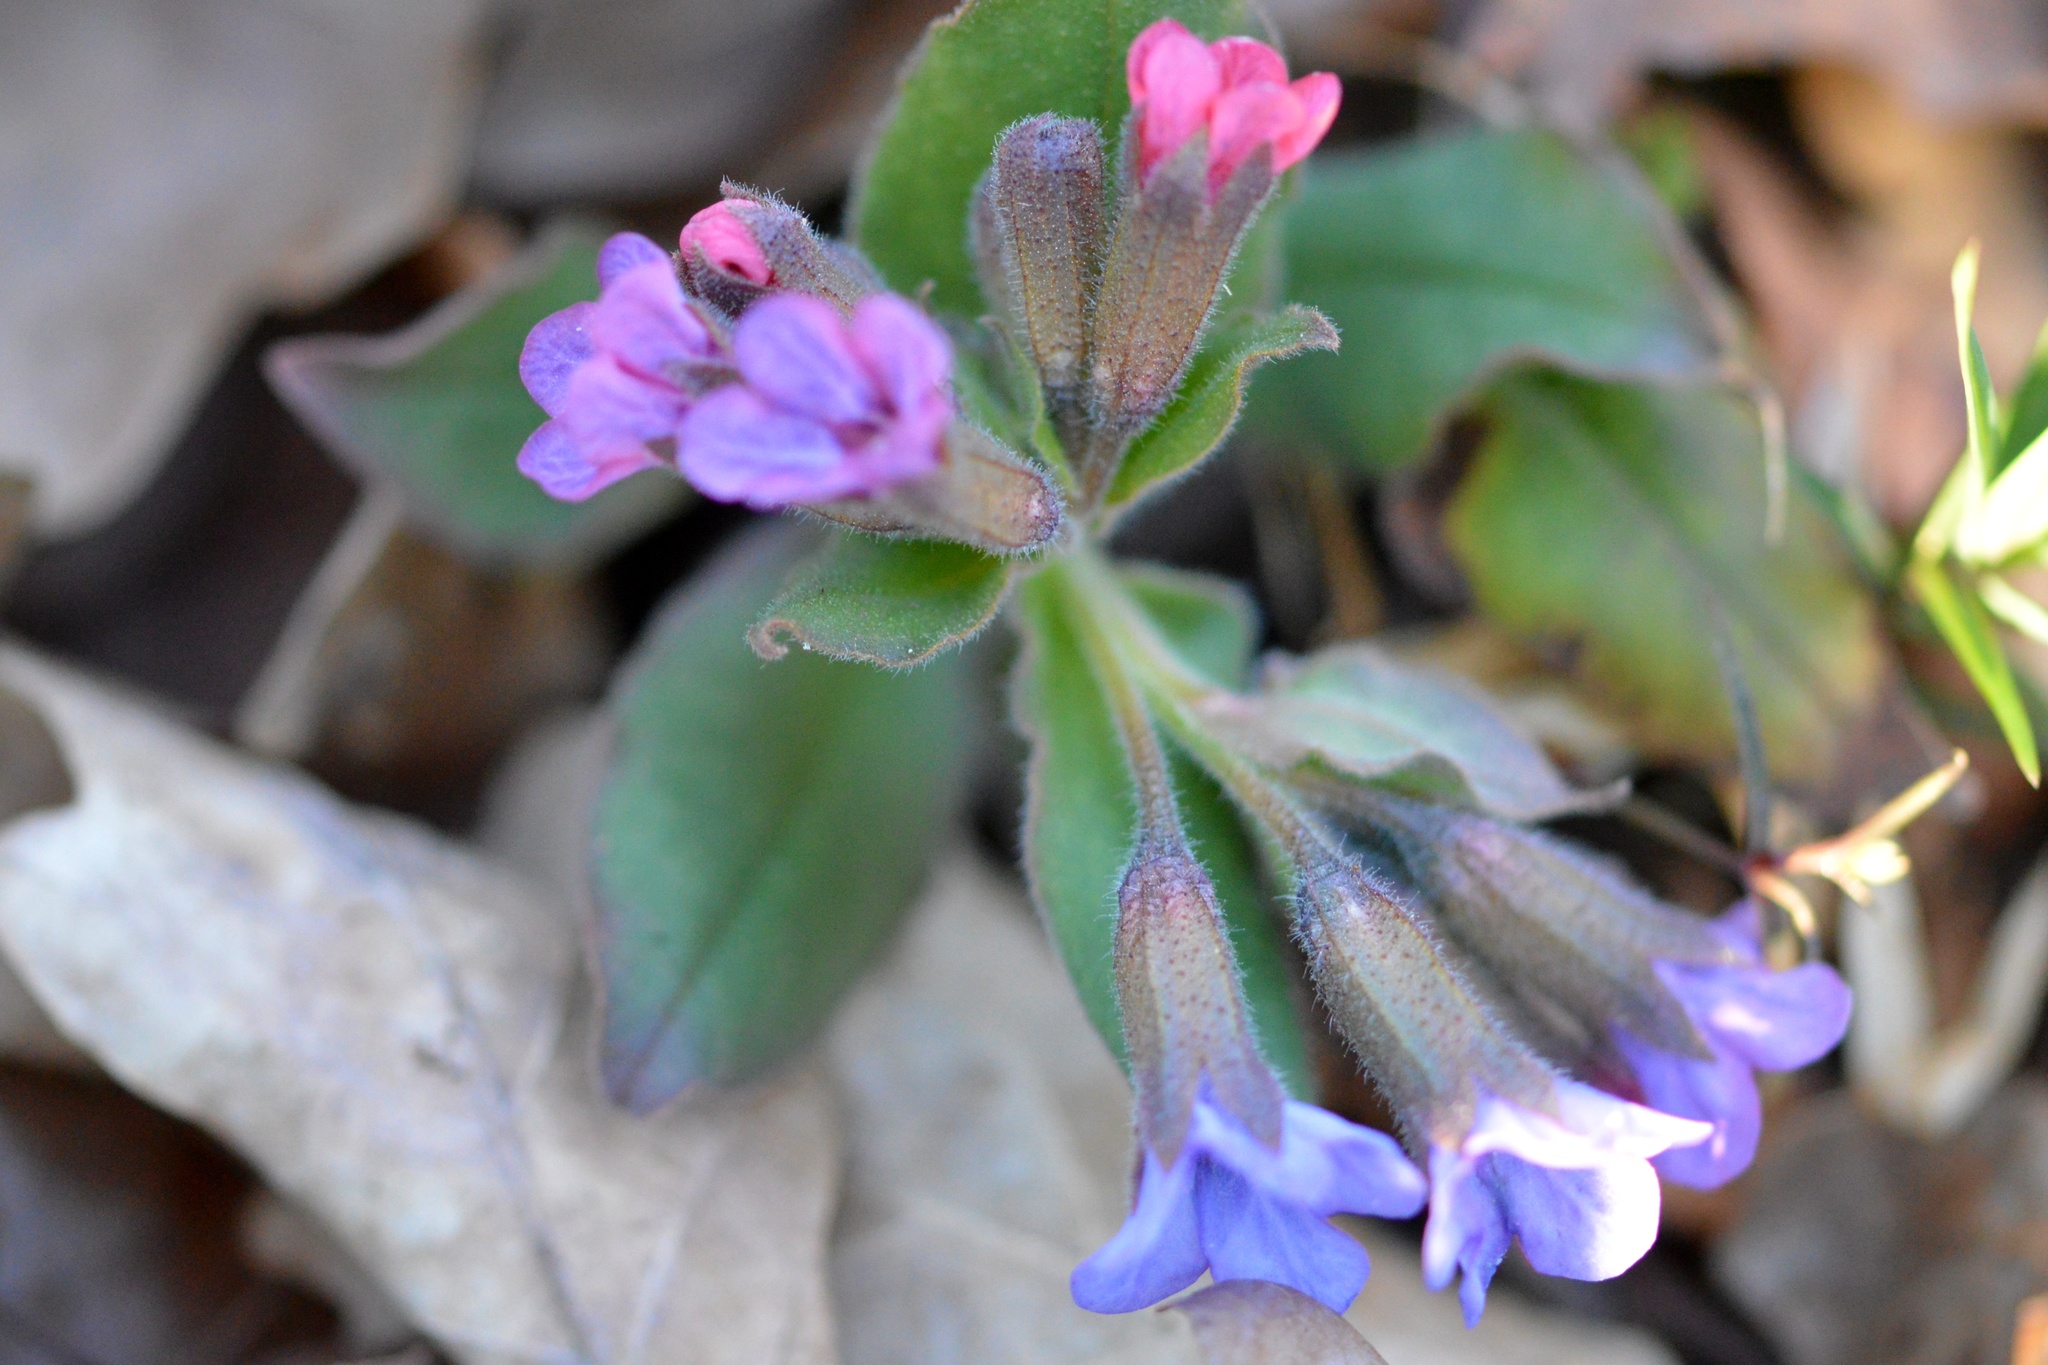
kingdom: Plantae
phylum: Tracheophyta
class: Magnoliopsida
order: Boraginales
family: Boraginaceae
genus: Pulmonaria
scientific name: Pulmonaria officinalis
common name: Lungwort
